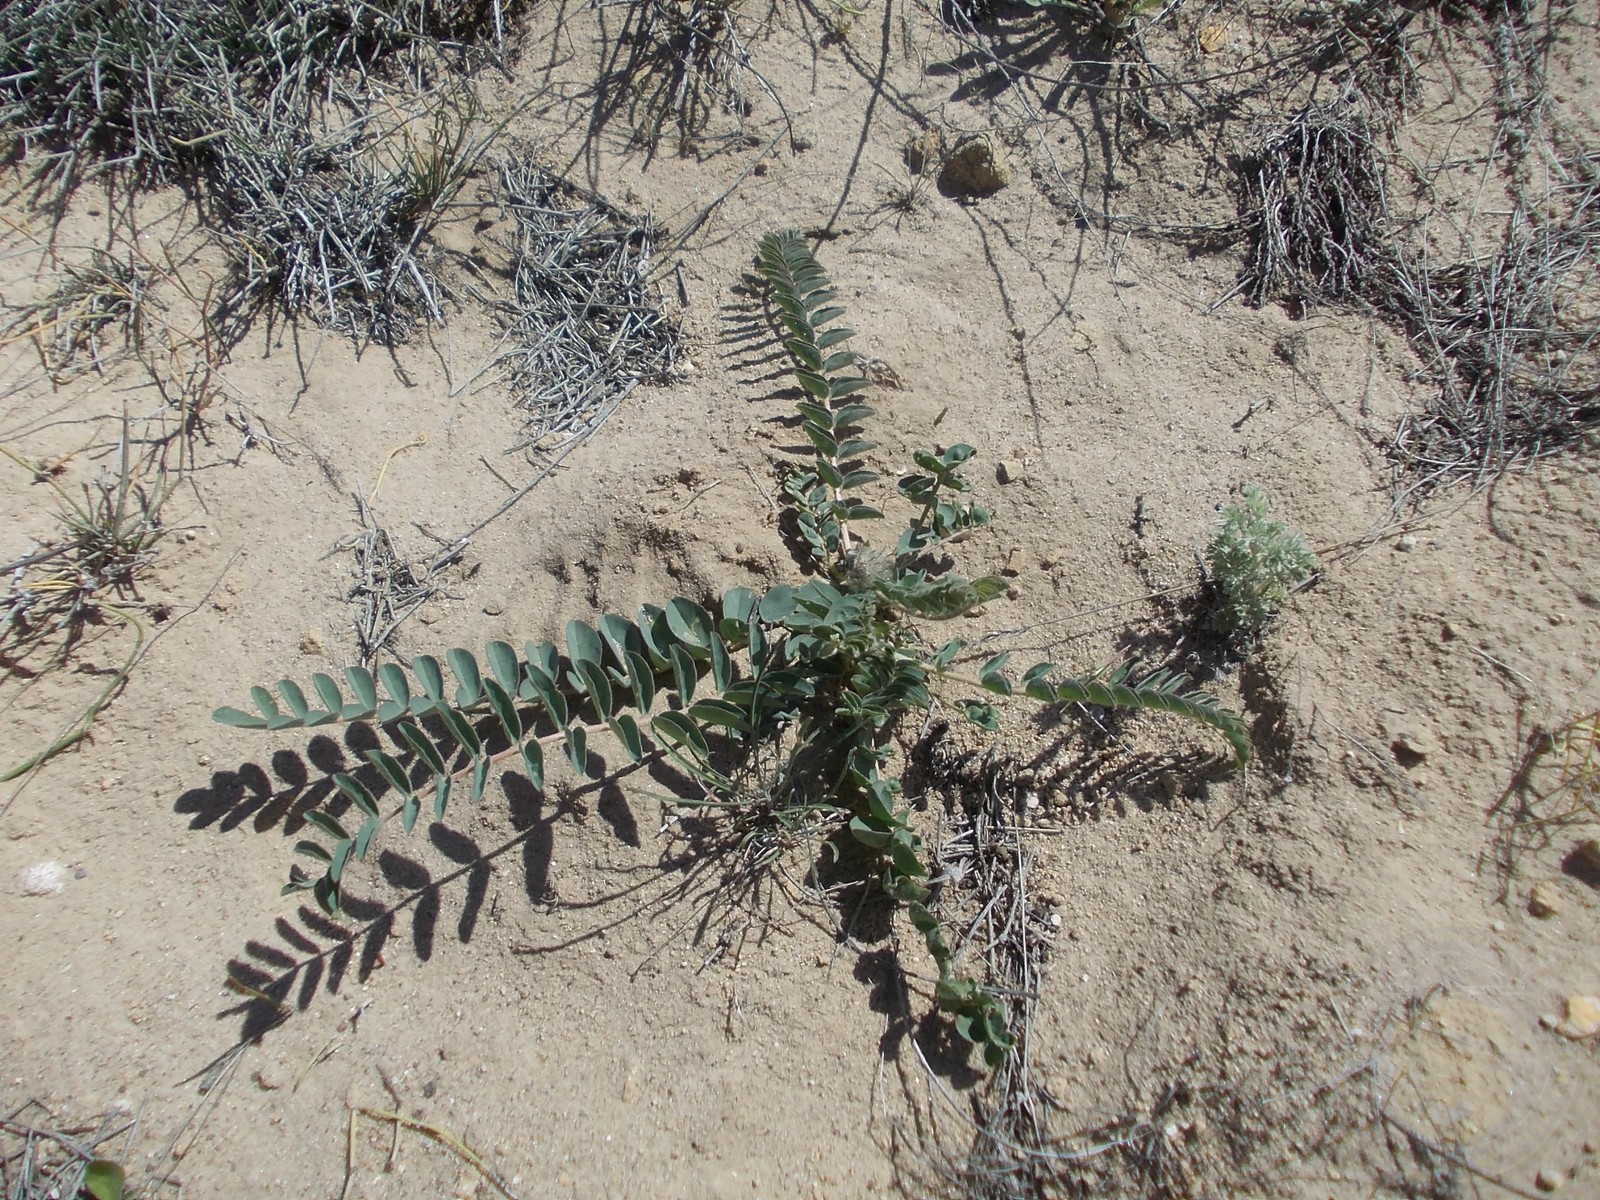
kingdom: Plantae
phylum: Tracheophyta
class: Magnoliopsida
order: Fabales
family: Fabaceae
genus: Astragalus
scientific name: Astragalus vulpinus
